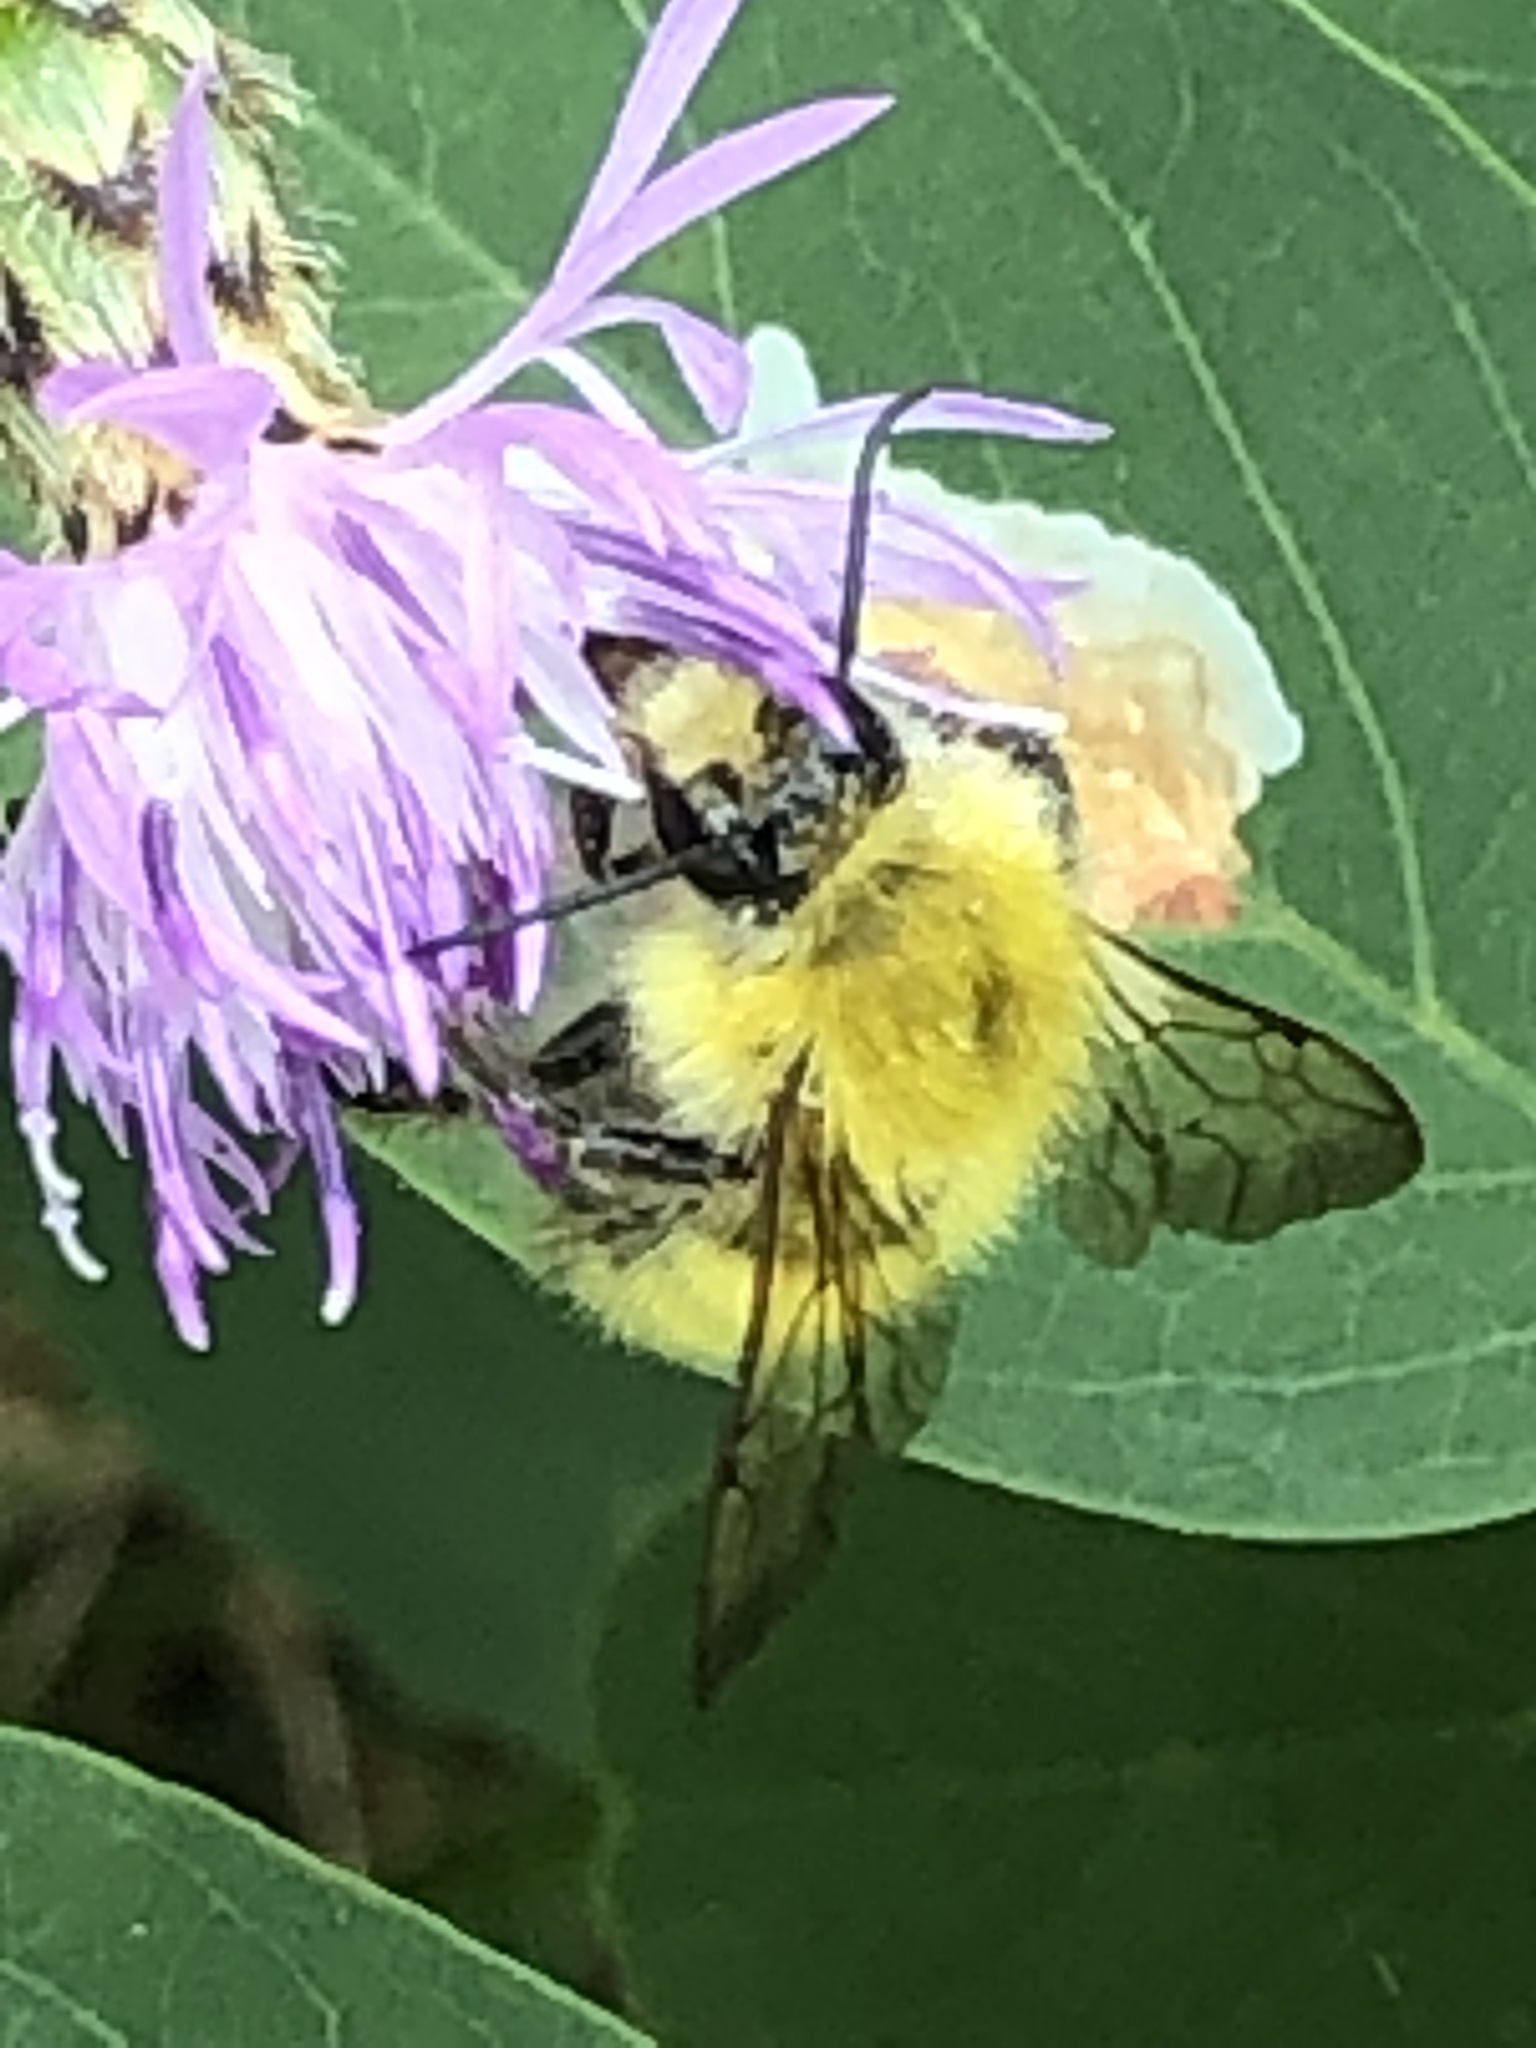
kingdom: Animalia
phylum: Arthropoda
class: Insecta
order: Hymenoptera
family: Apidae
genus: Bombus
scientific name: Bombus perplexus
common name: Confusing bumble bee
